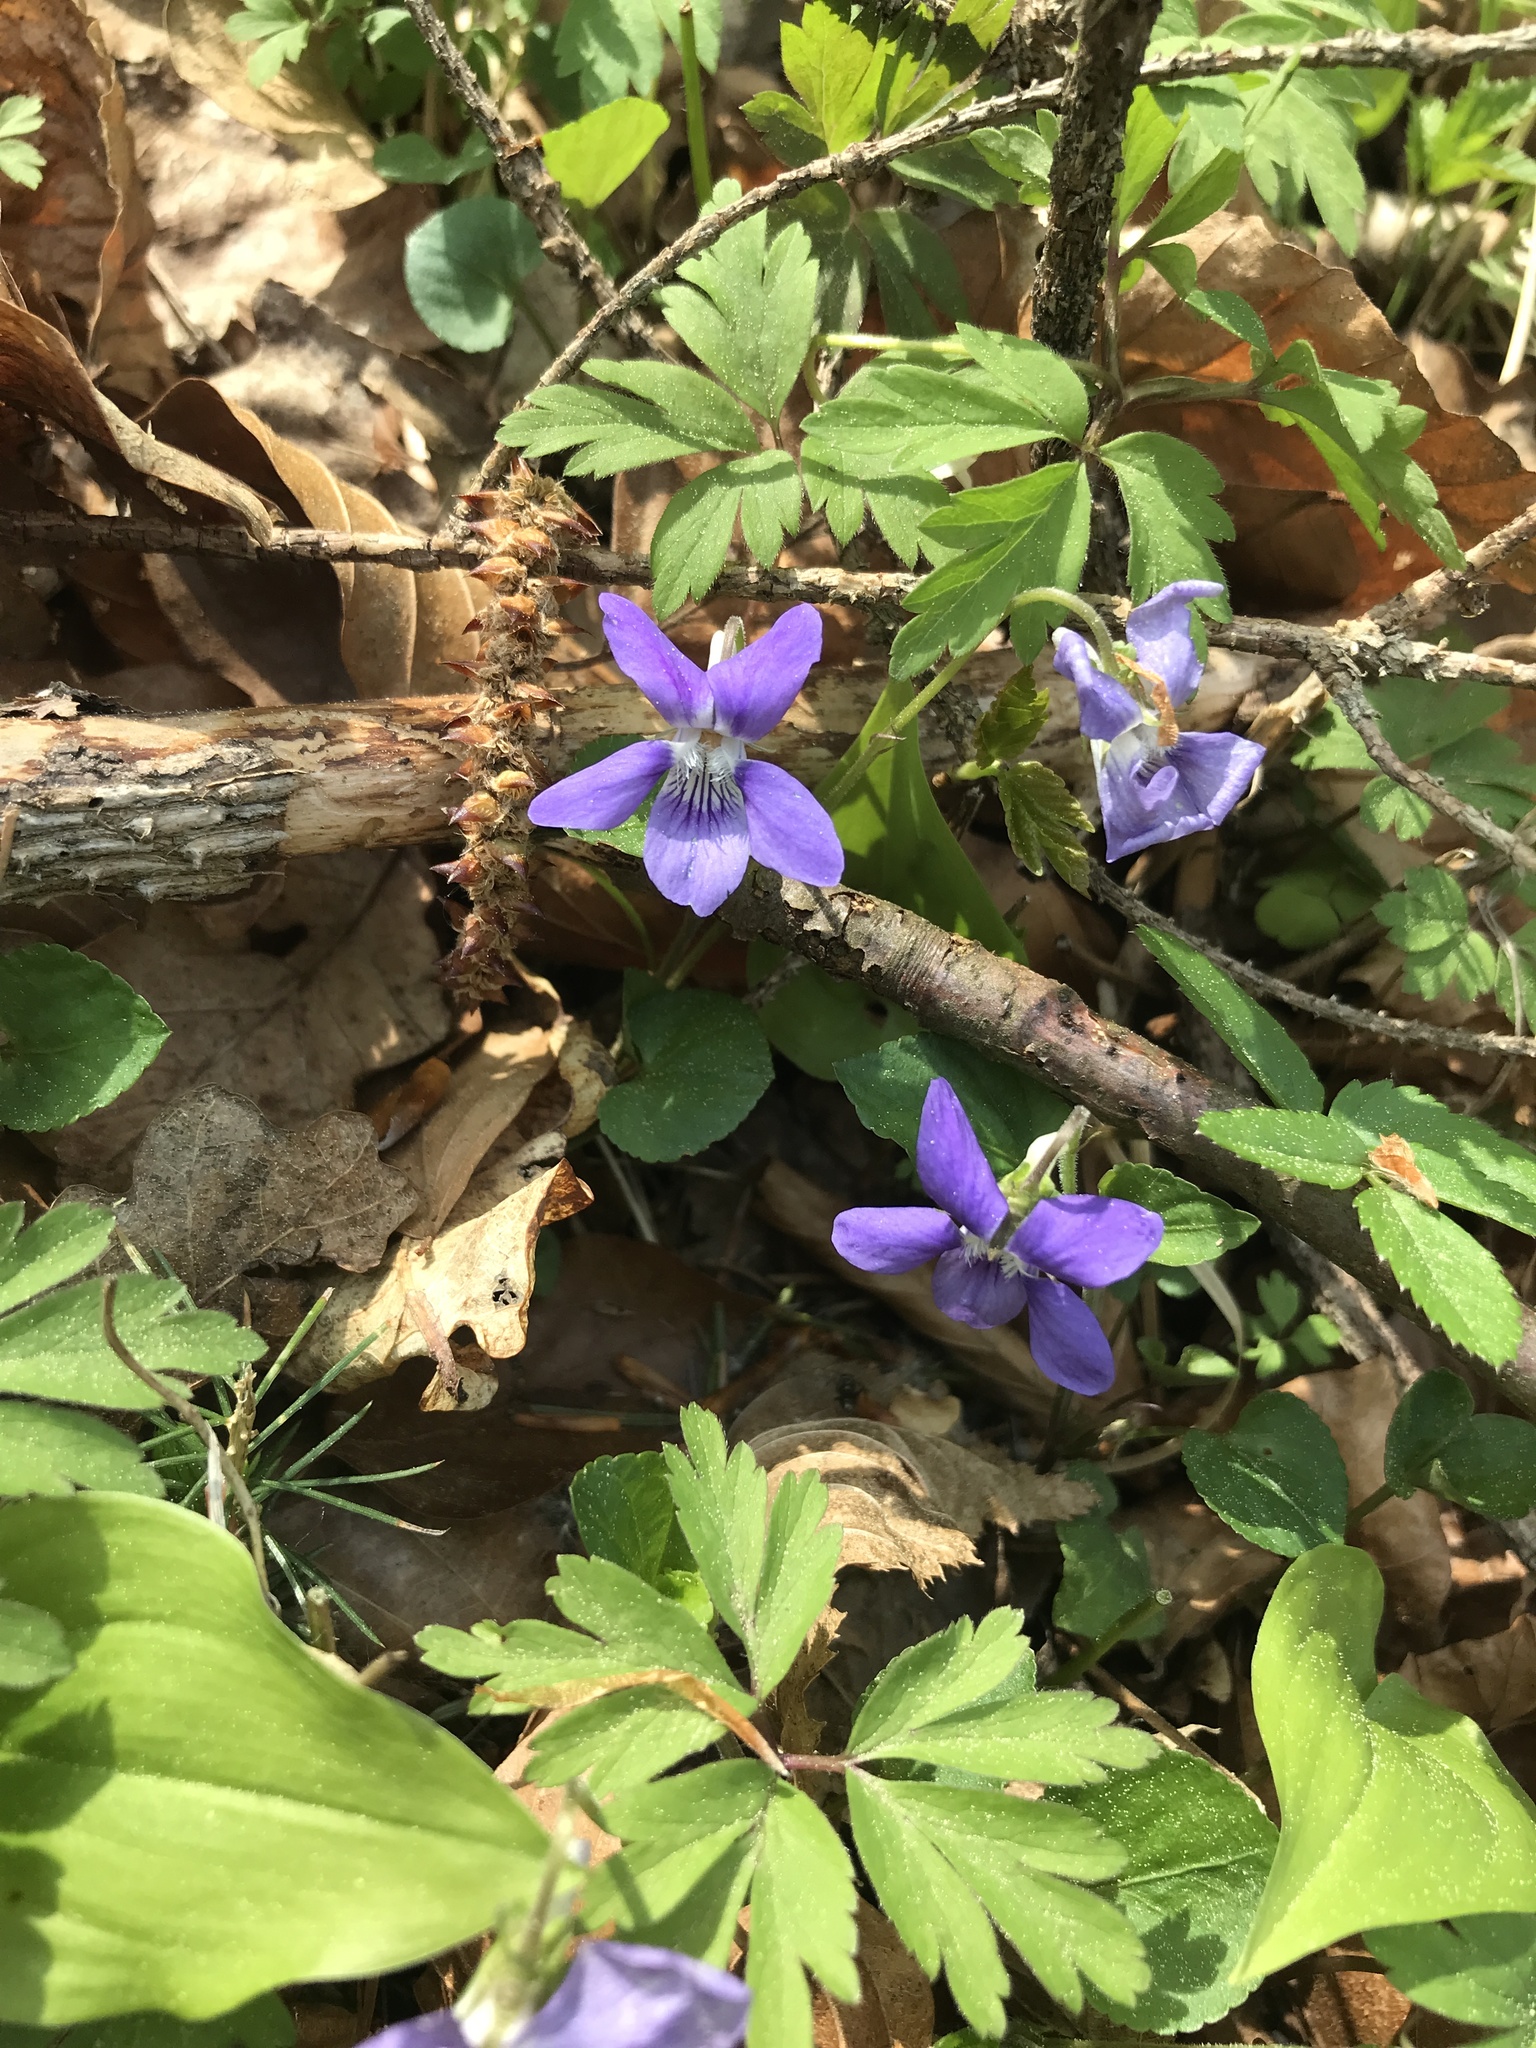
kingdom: Plantae
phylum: Tracheophyta
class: Magnoliopsida
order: Malpighiales
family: Violaceae
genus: Viola
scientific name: Viola riviniana
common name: Common dog-violet
